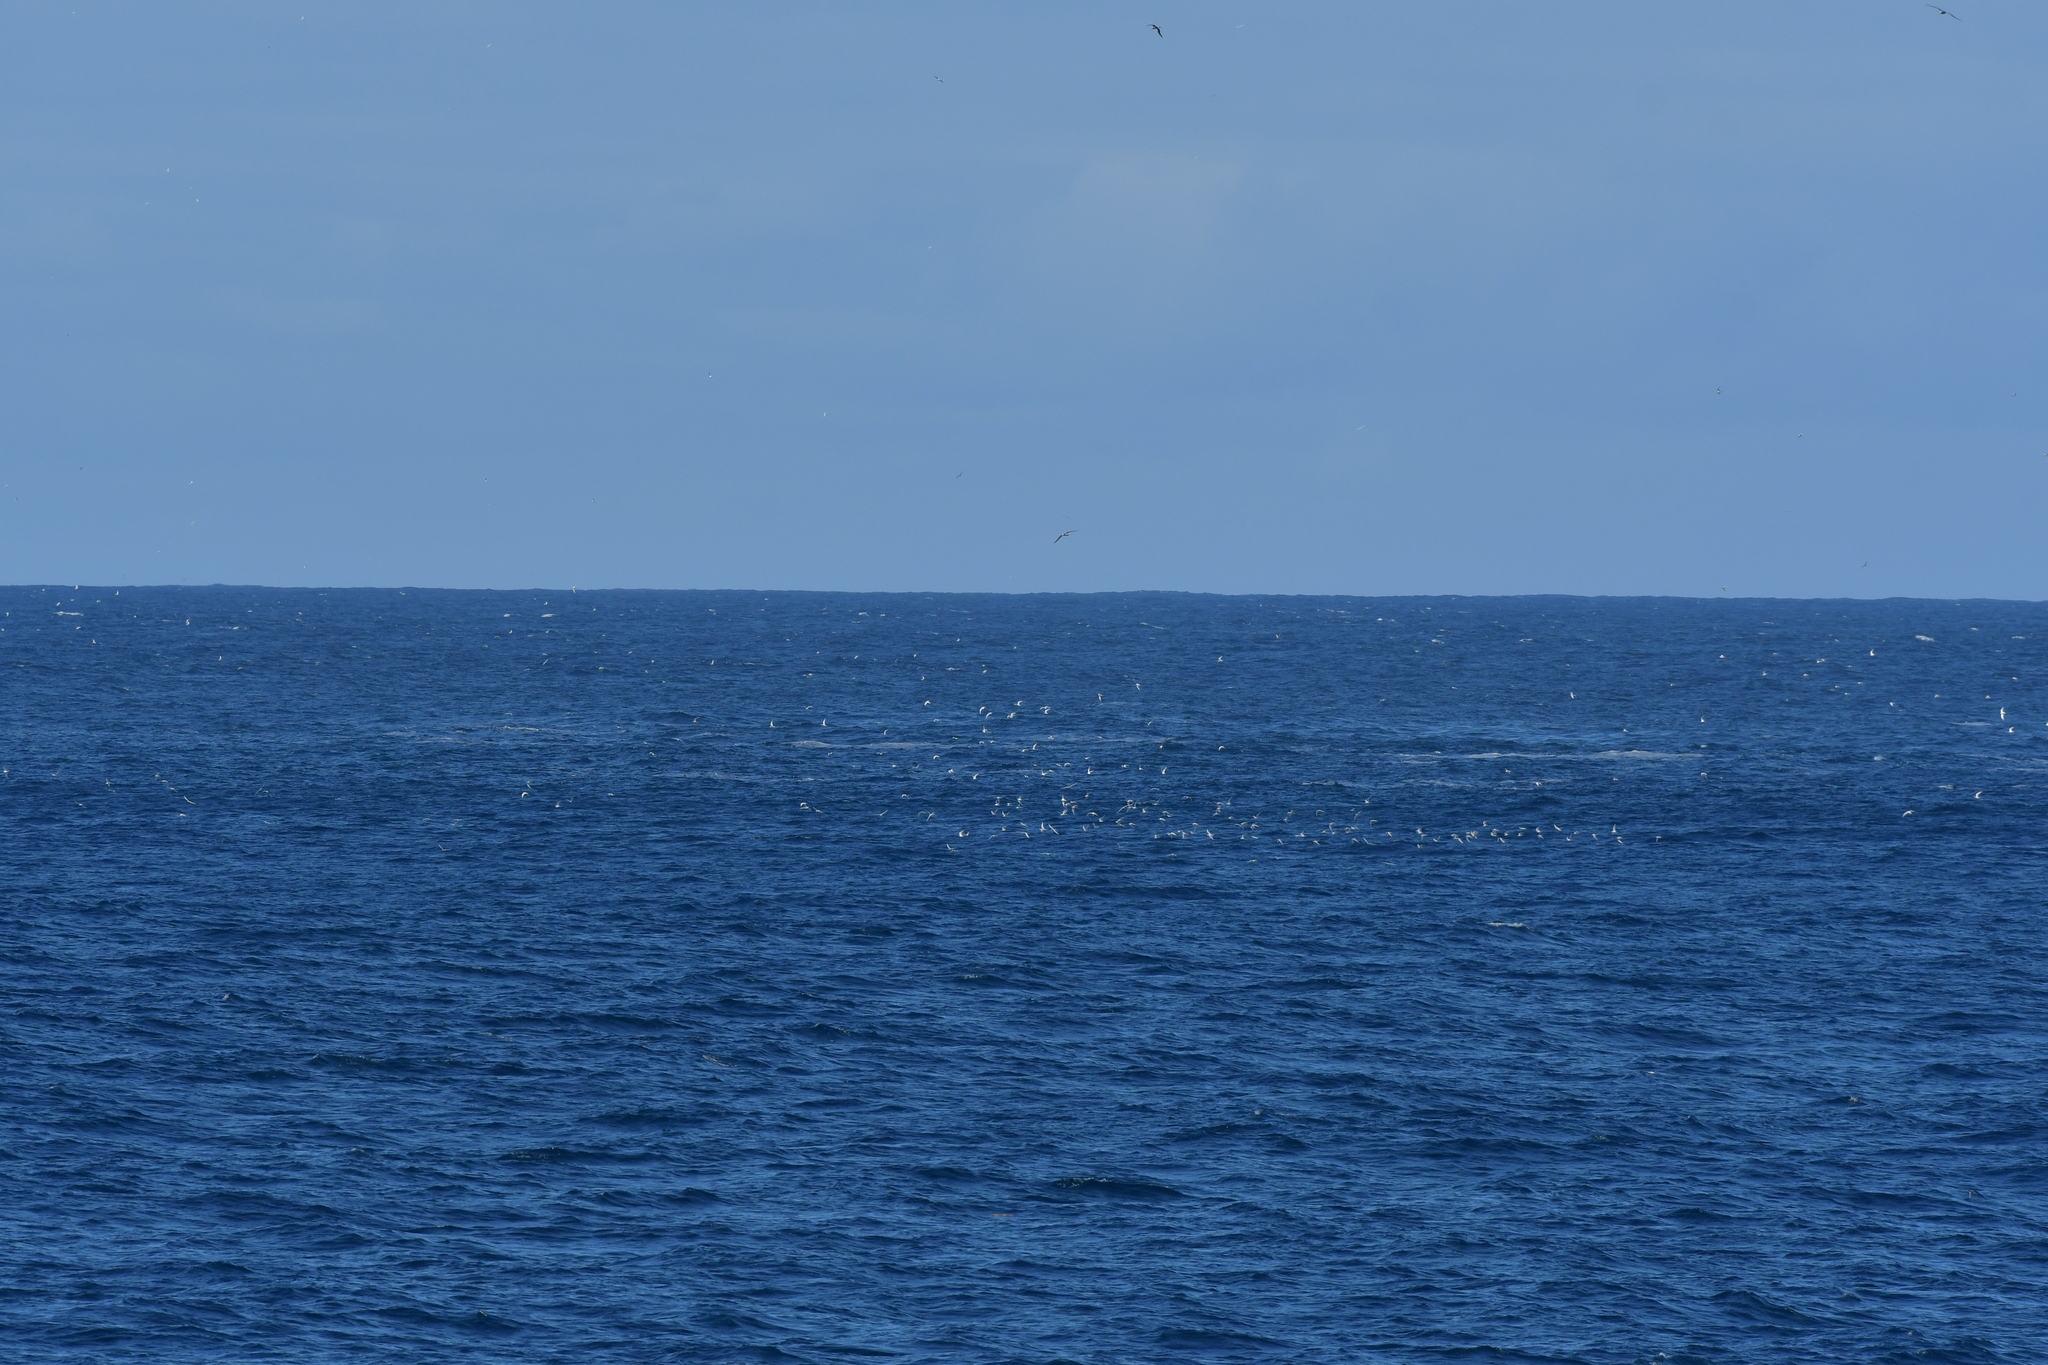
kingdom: Animalia
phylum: Chordata
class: Aves
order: Charadriiformes
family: Laridae
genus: Sterna
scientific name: Sterna striata
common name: White-fronted tern
